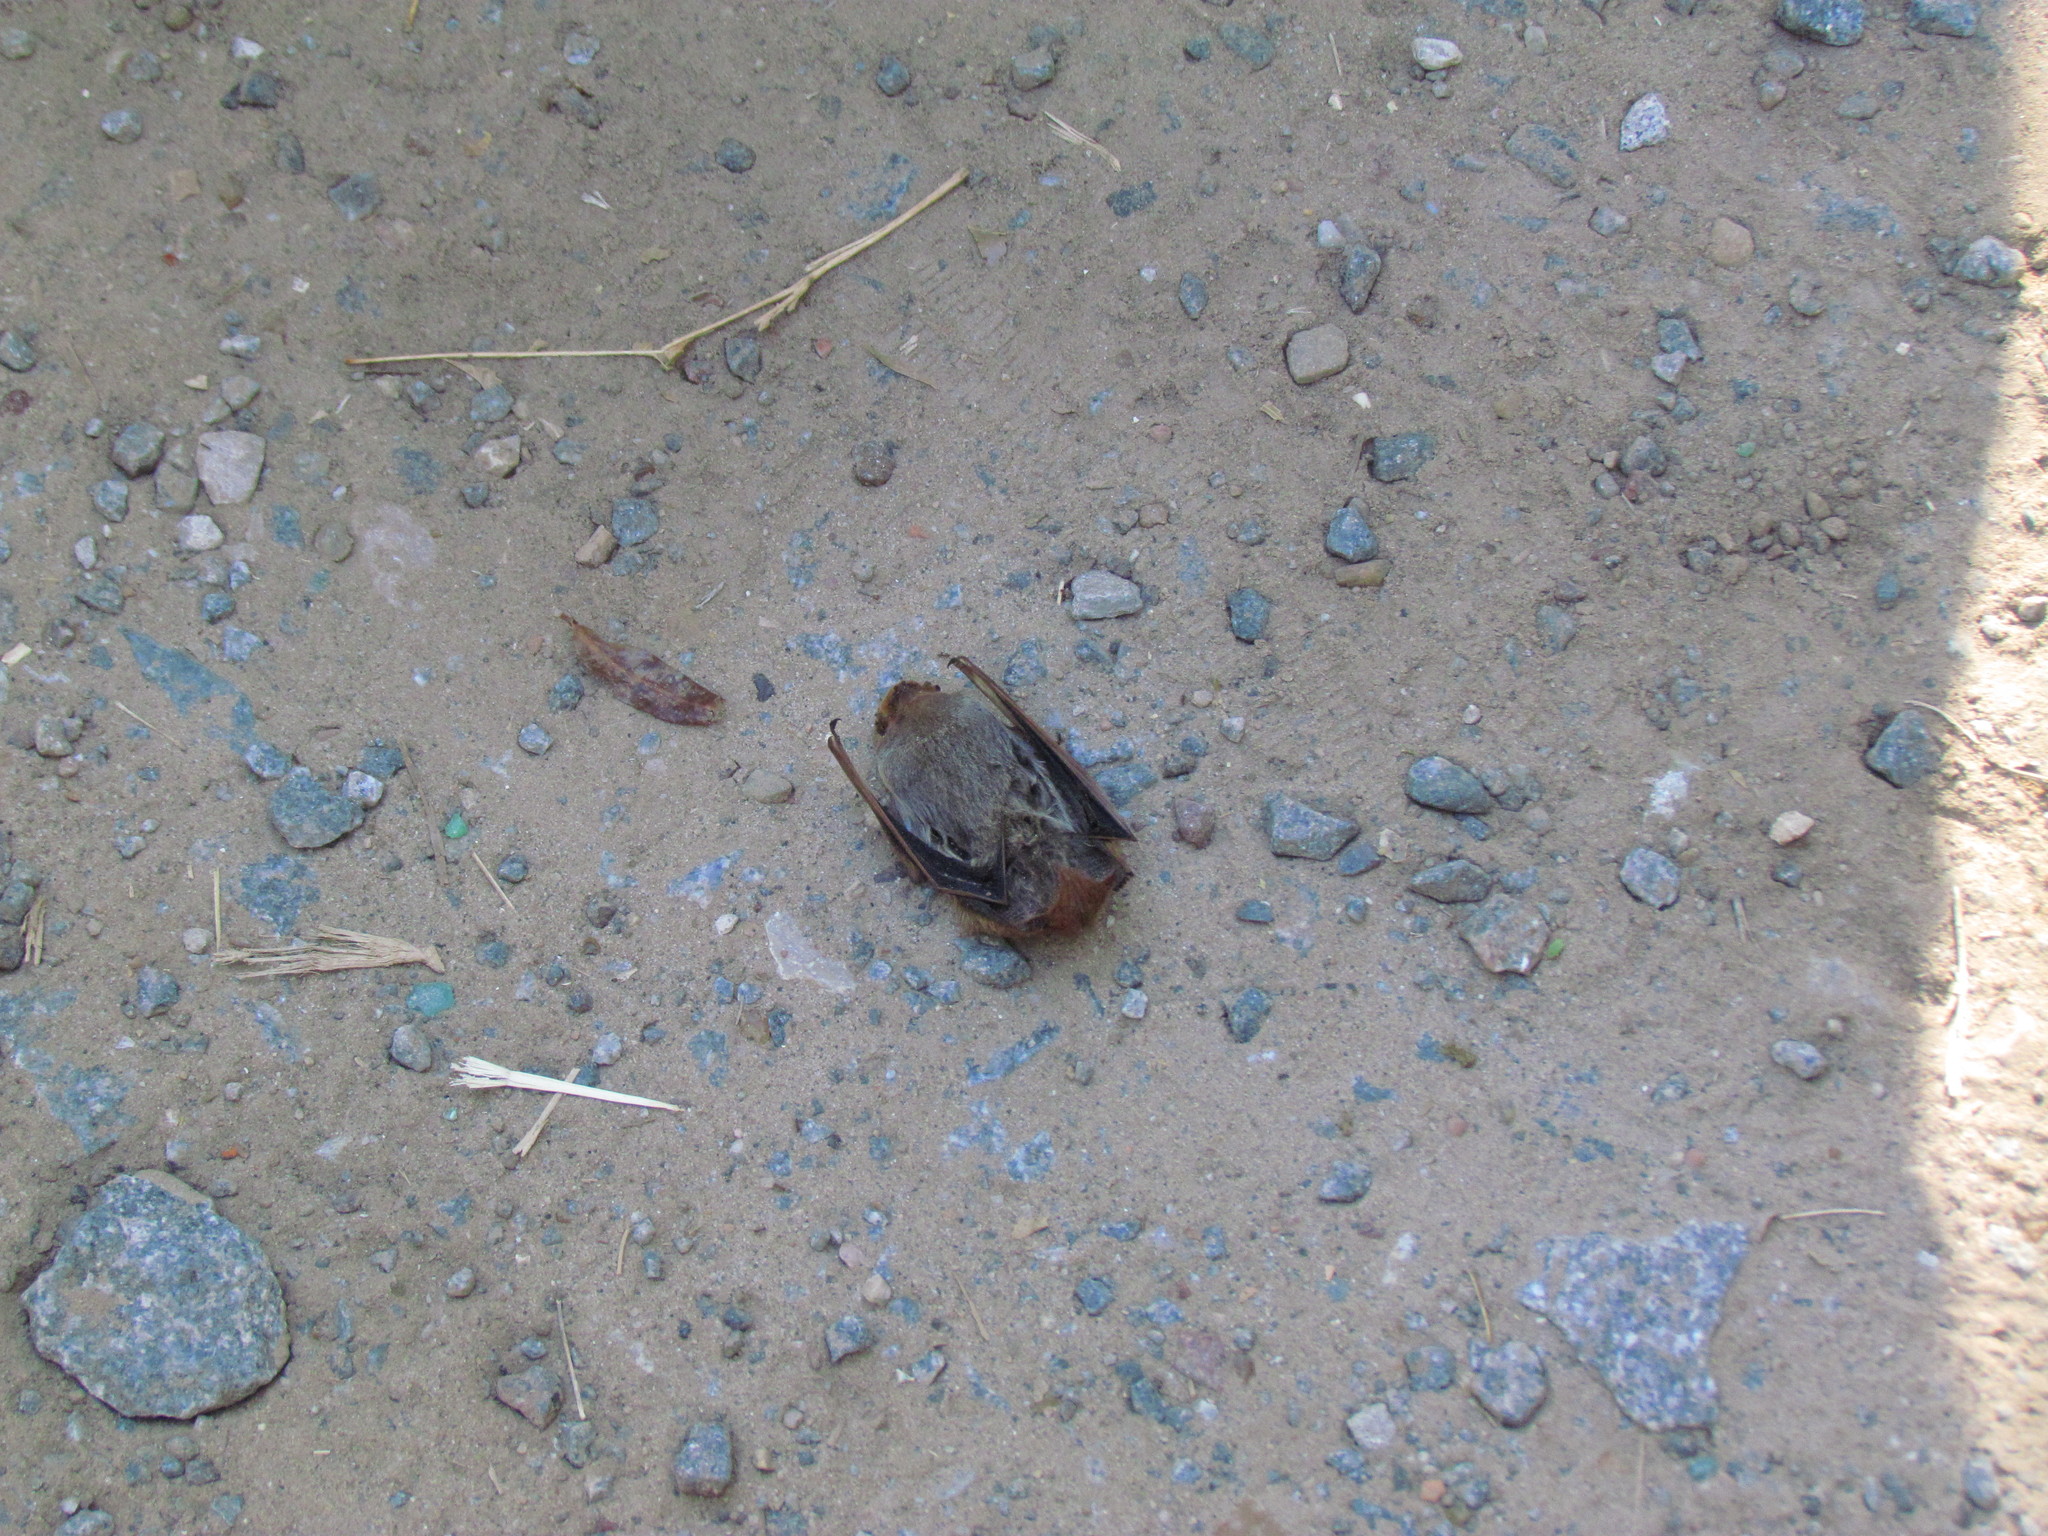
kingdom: Animalia
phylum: Chordata
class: Mammalia
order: Chiroptera
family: Vespertilionidae
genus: Lasiurus
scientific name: Lasiurus blossevillii
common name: Southern red bat
